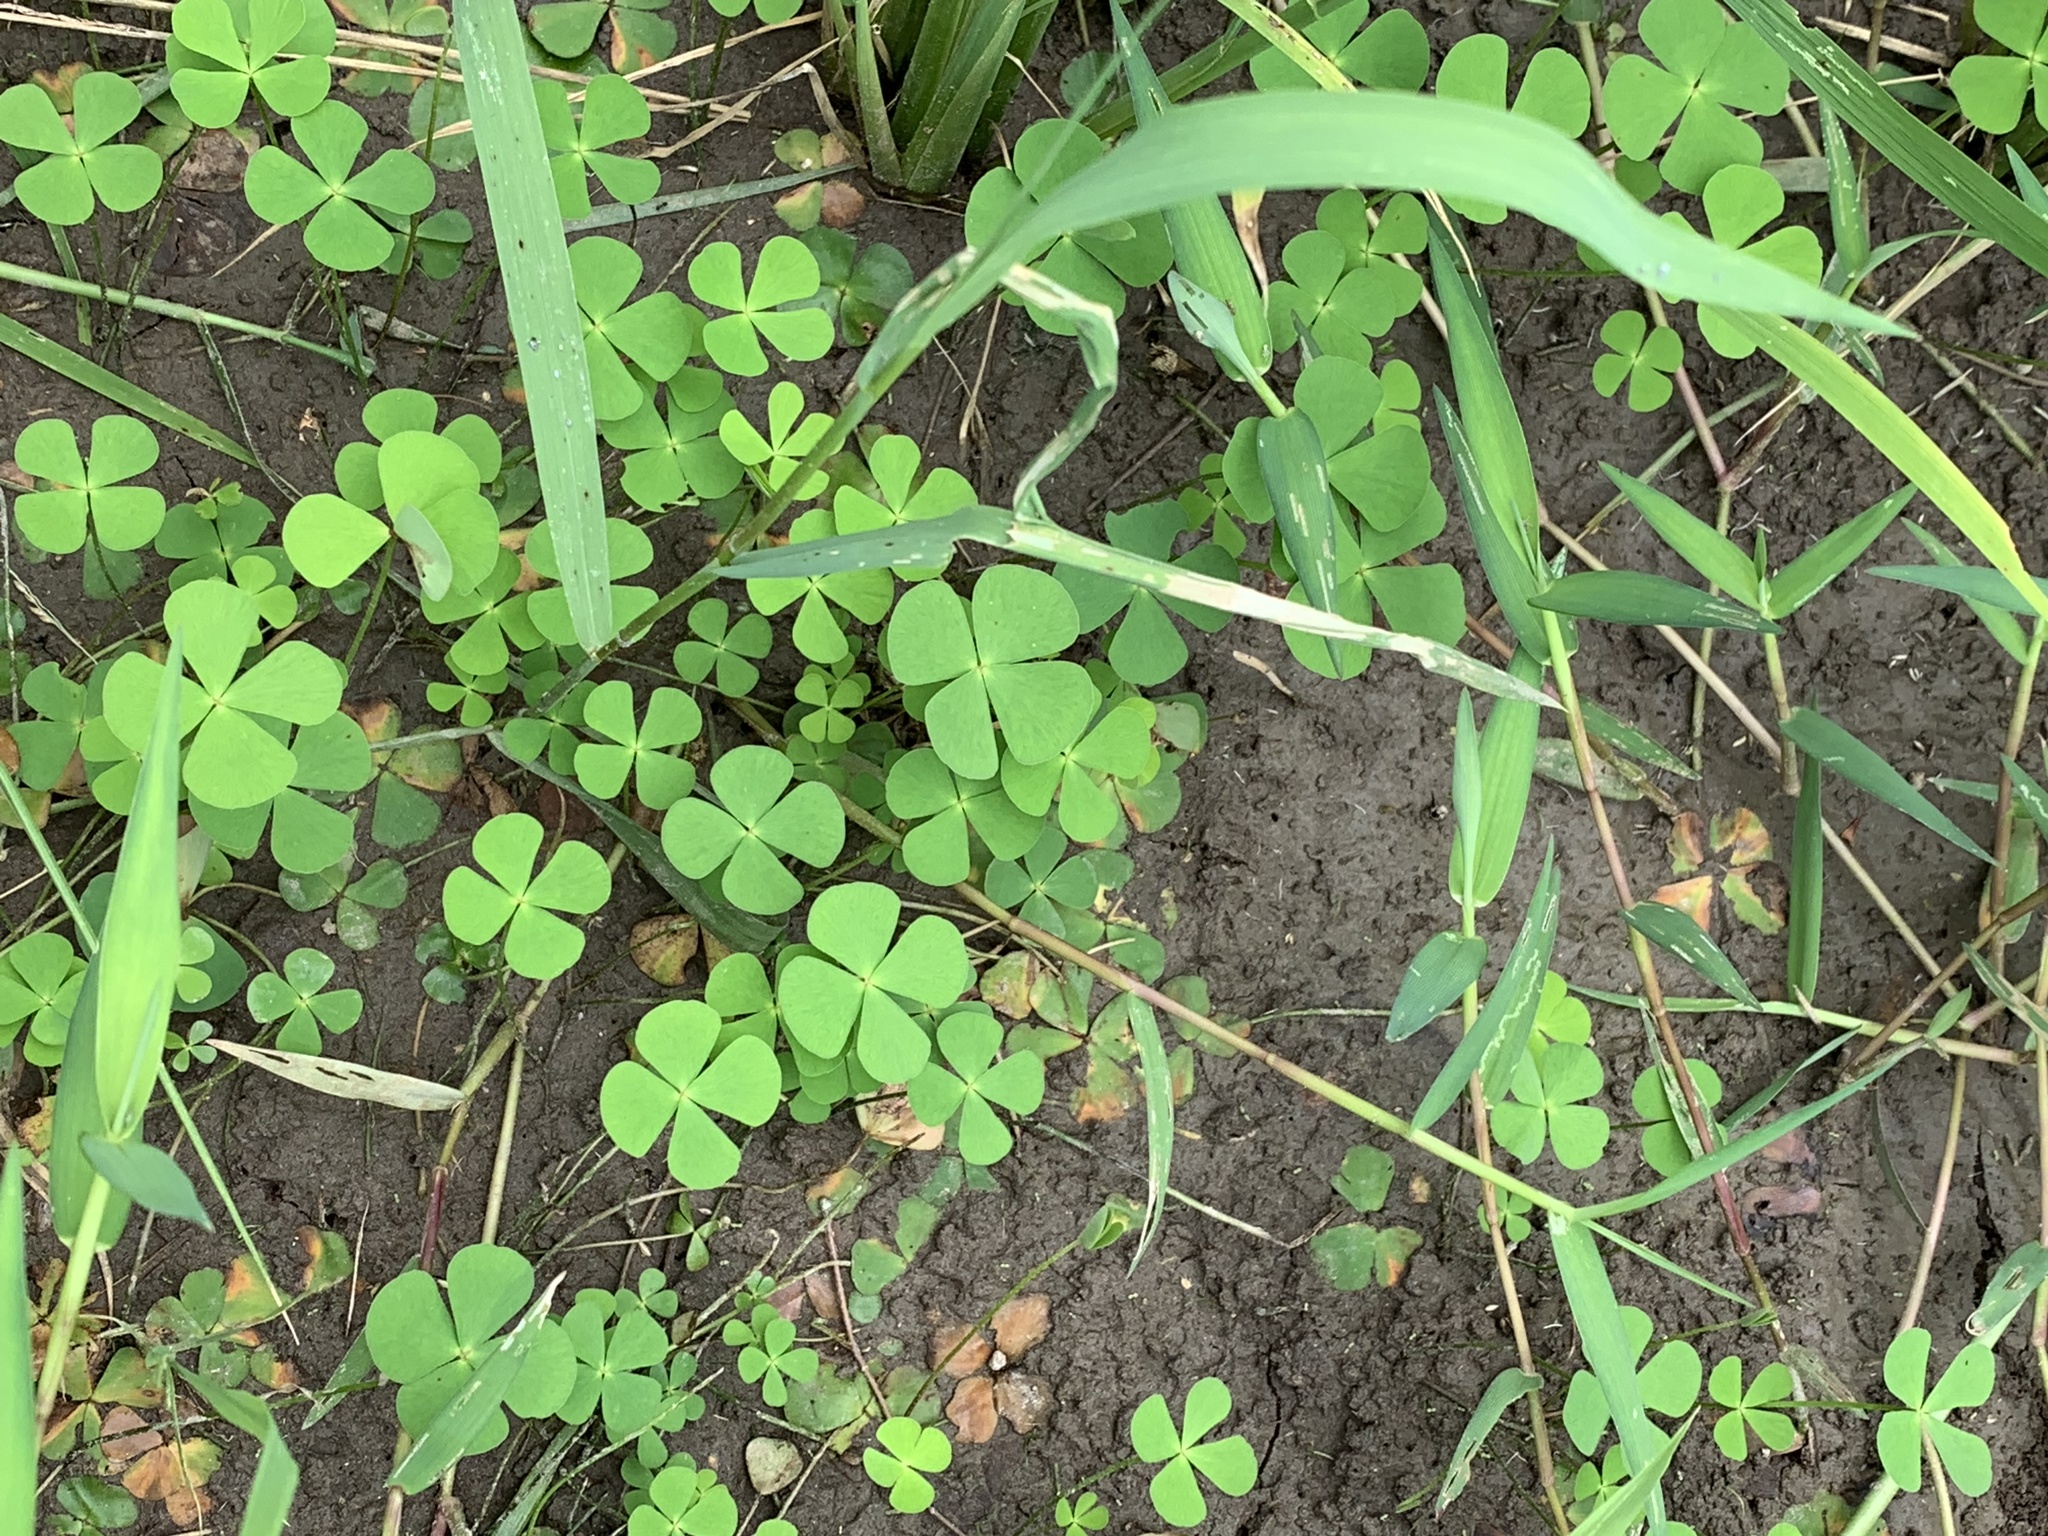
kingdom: Plantae
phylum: Tracheophyta
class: Polypodiopsida
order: Salviniales
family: Marsileaceae
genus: Marsilea
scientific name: Marsilea crenata
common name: False pepperwort
